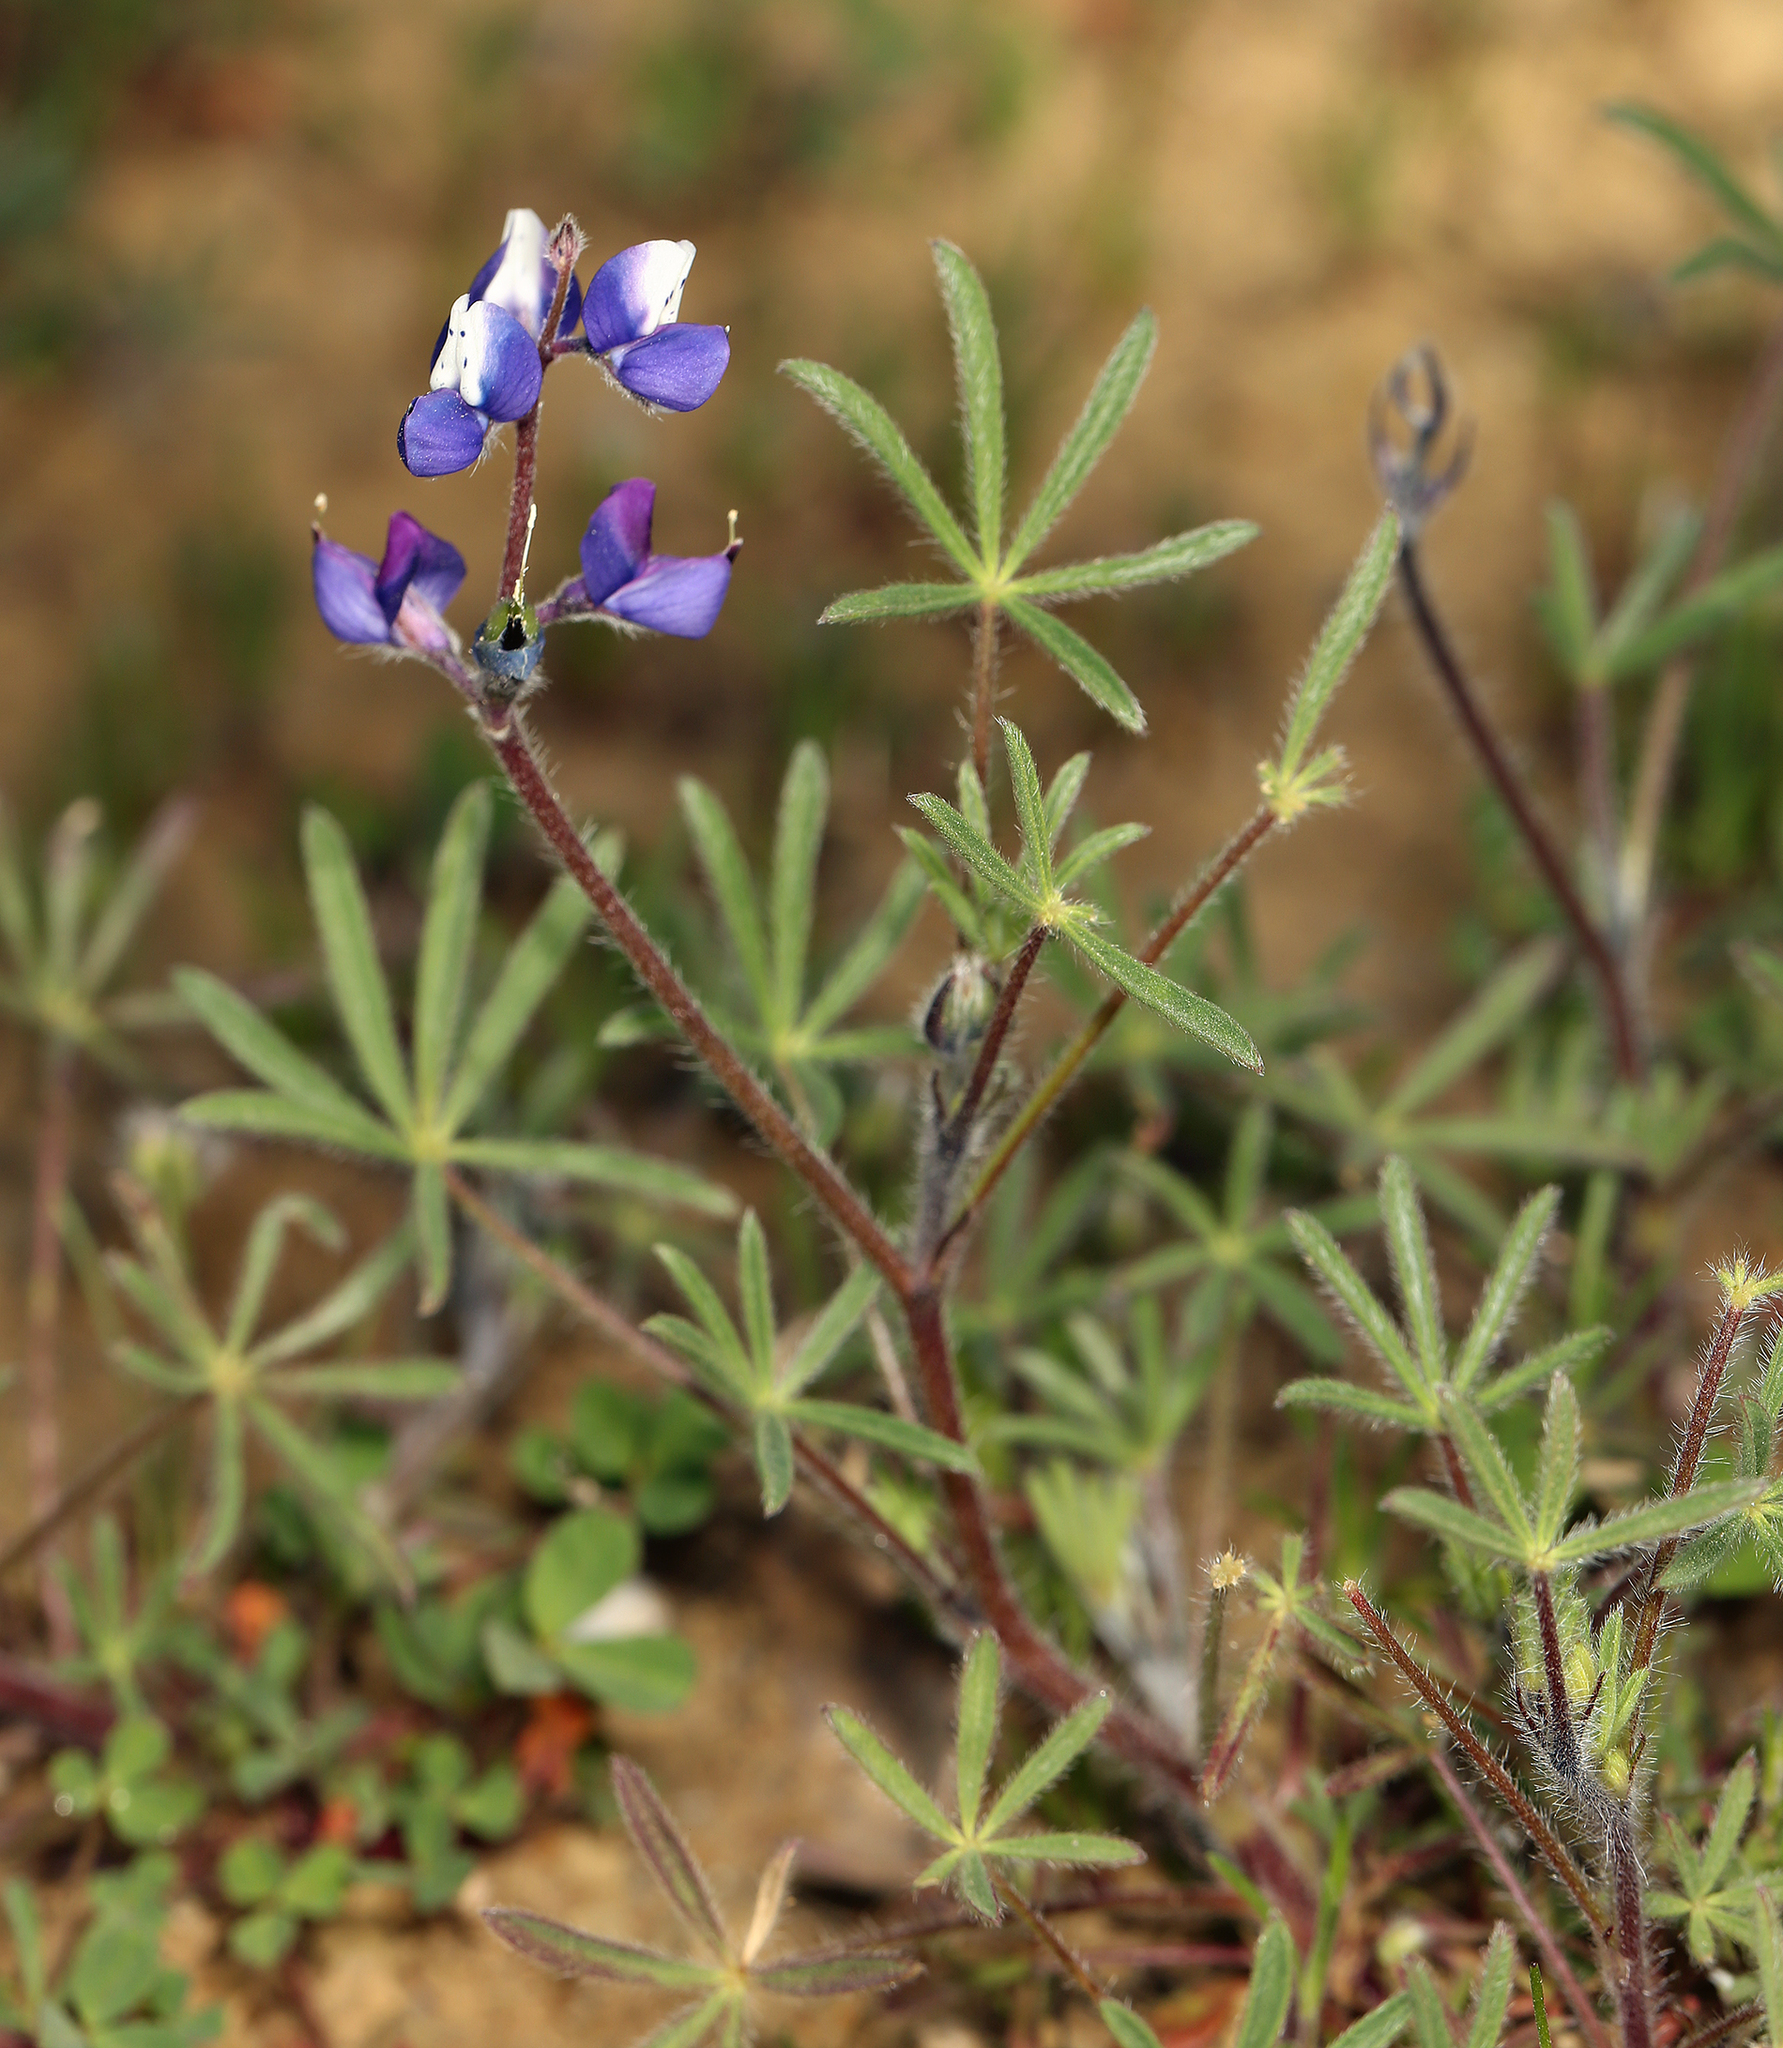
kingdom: Plantae
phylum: Tracheophyta
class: Magnoliopsida
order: Fabales
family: Fabaceae
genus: Lupinus
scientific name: Lupinus bicolor
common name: Miniature lupine
